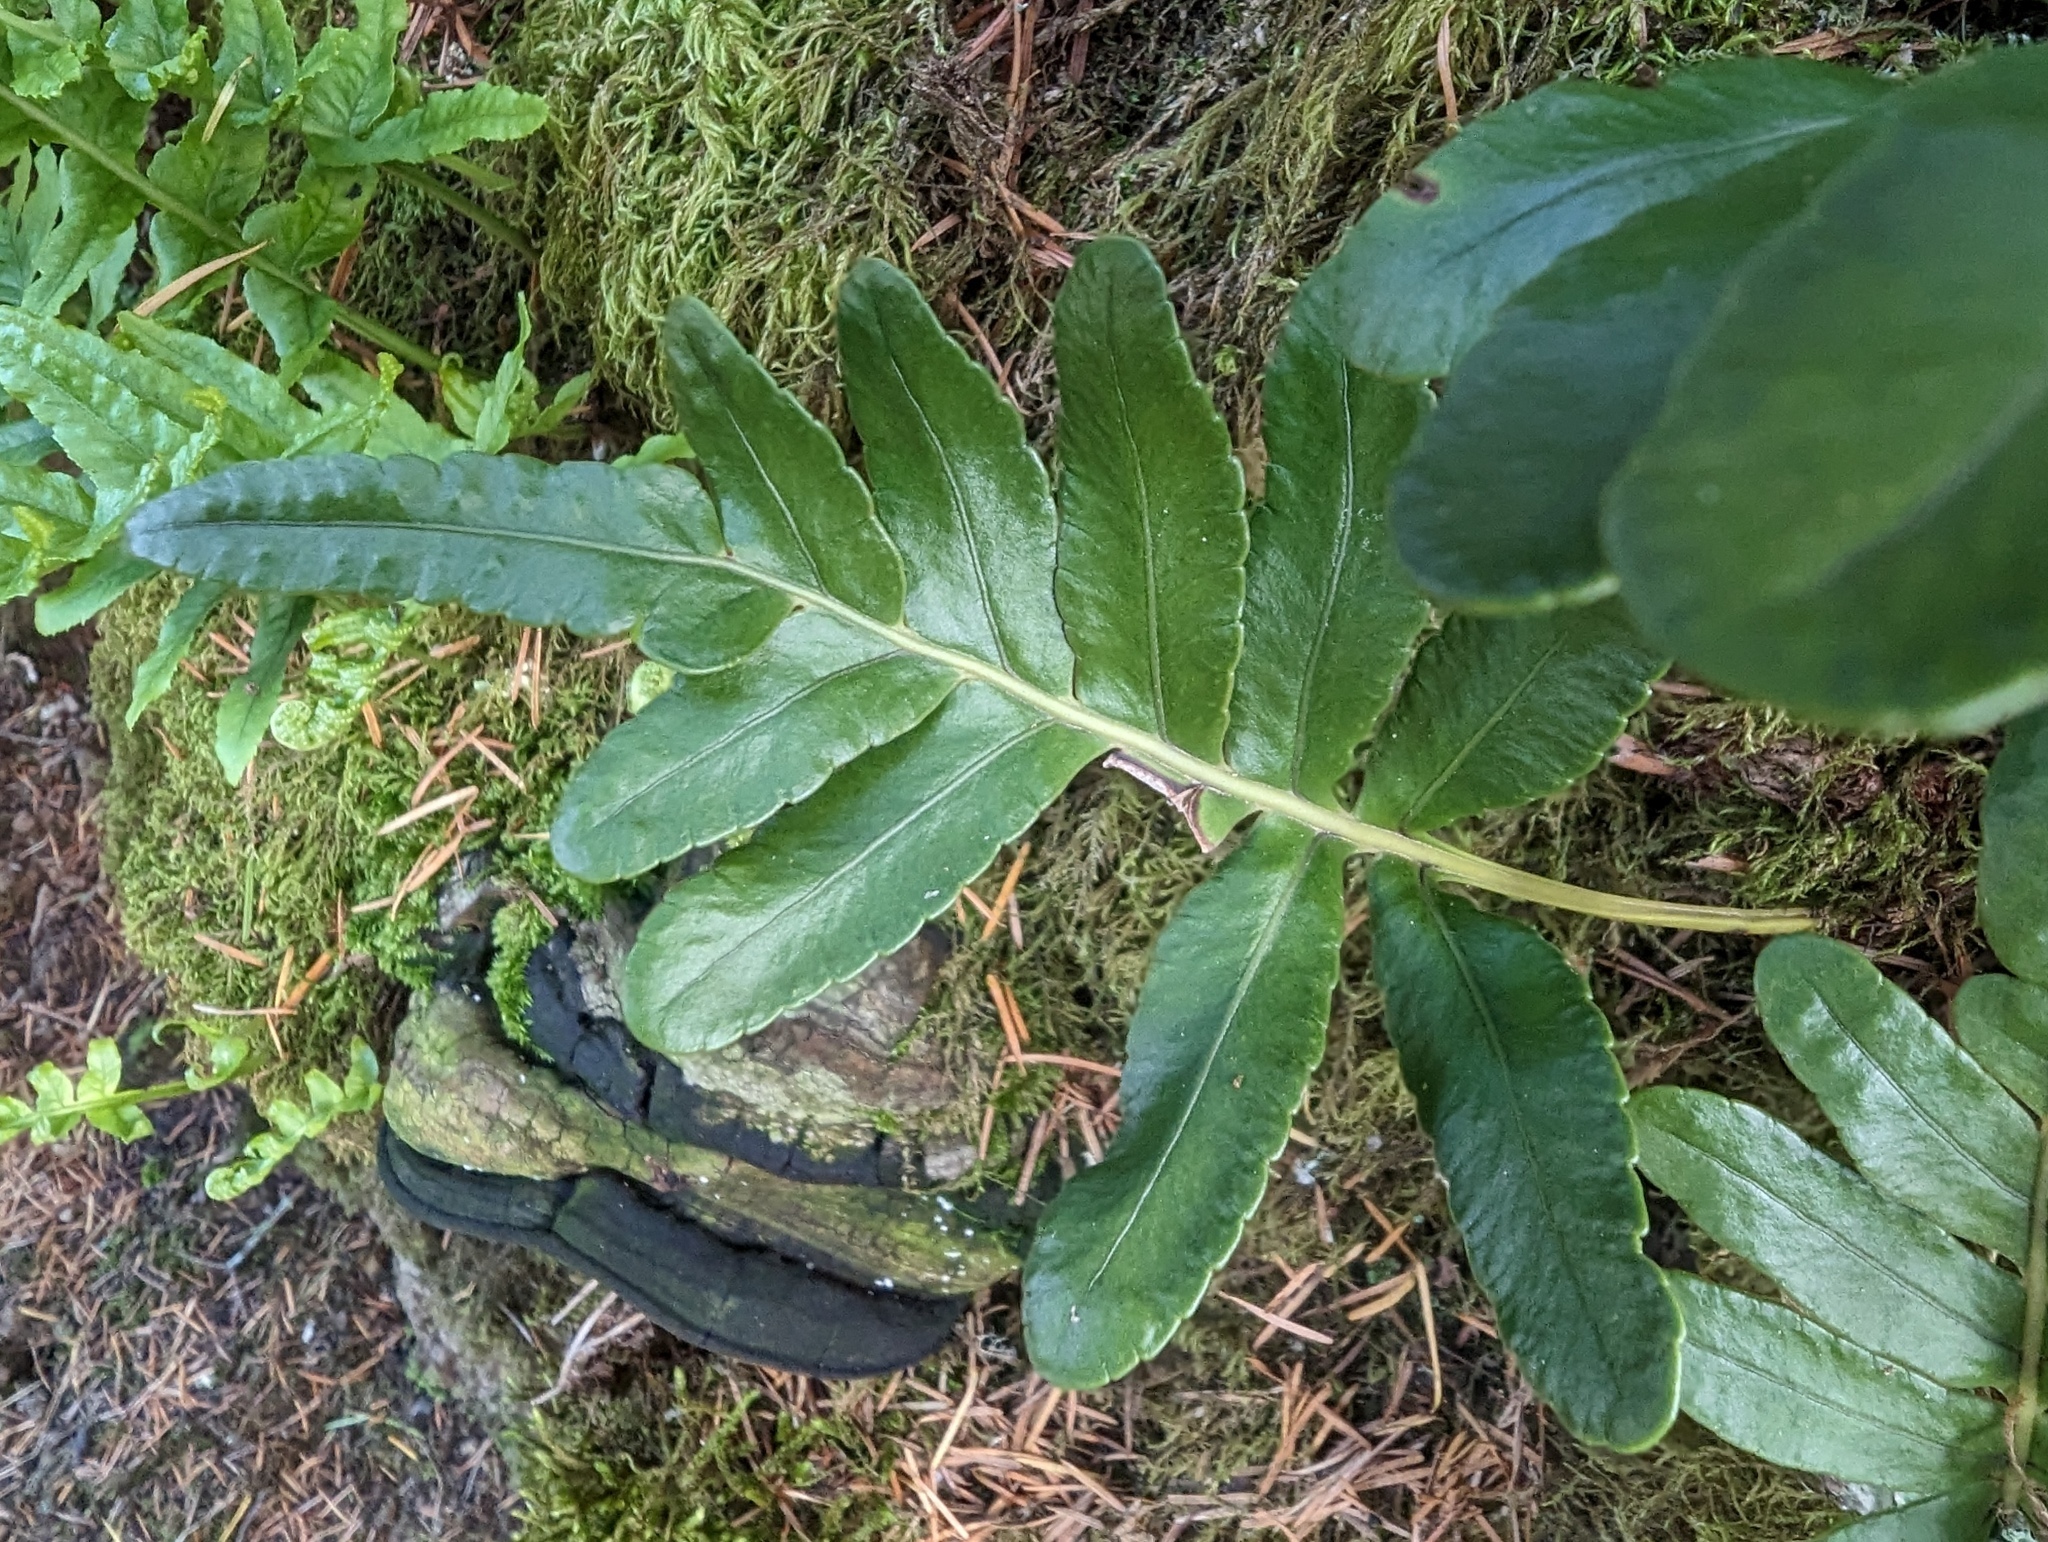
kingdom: Plantae
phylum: Tracheophyta
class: Polypodiopsida
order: Polypodiales
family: Polypodiaceae
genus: Polypodium
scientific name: Polypodium scouleri
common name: Scouler's polypody
